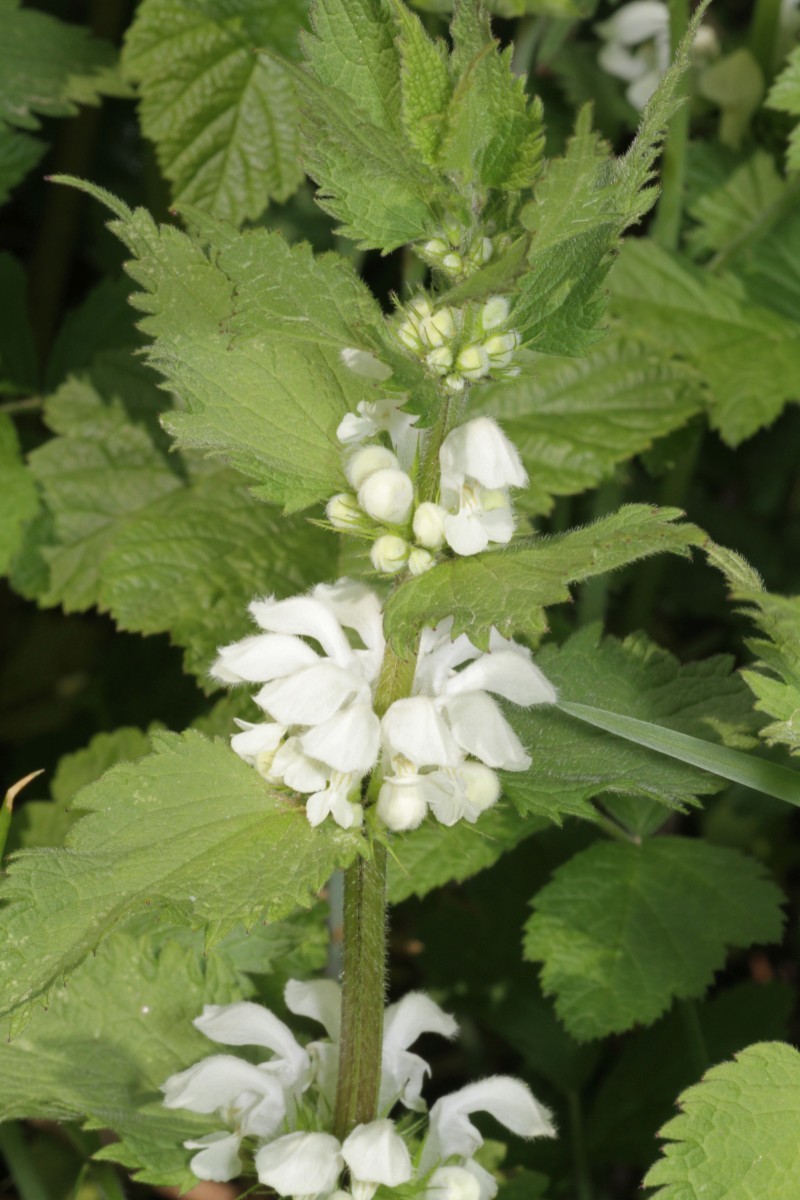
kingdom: Plantae
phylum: Tracheophyta
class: Magnoliopsida
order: Lamiales
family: Lamiaceae
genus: Lamium
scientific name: Lamium album
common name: White dead-nettle
